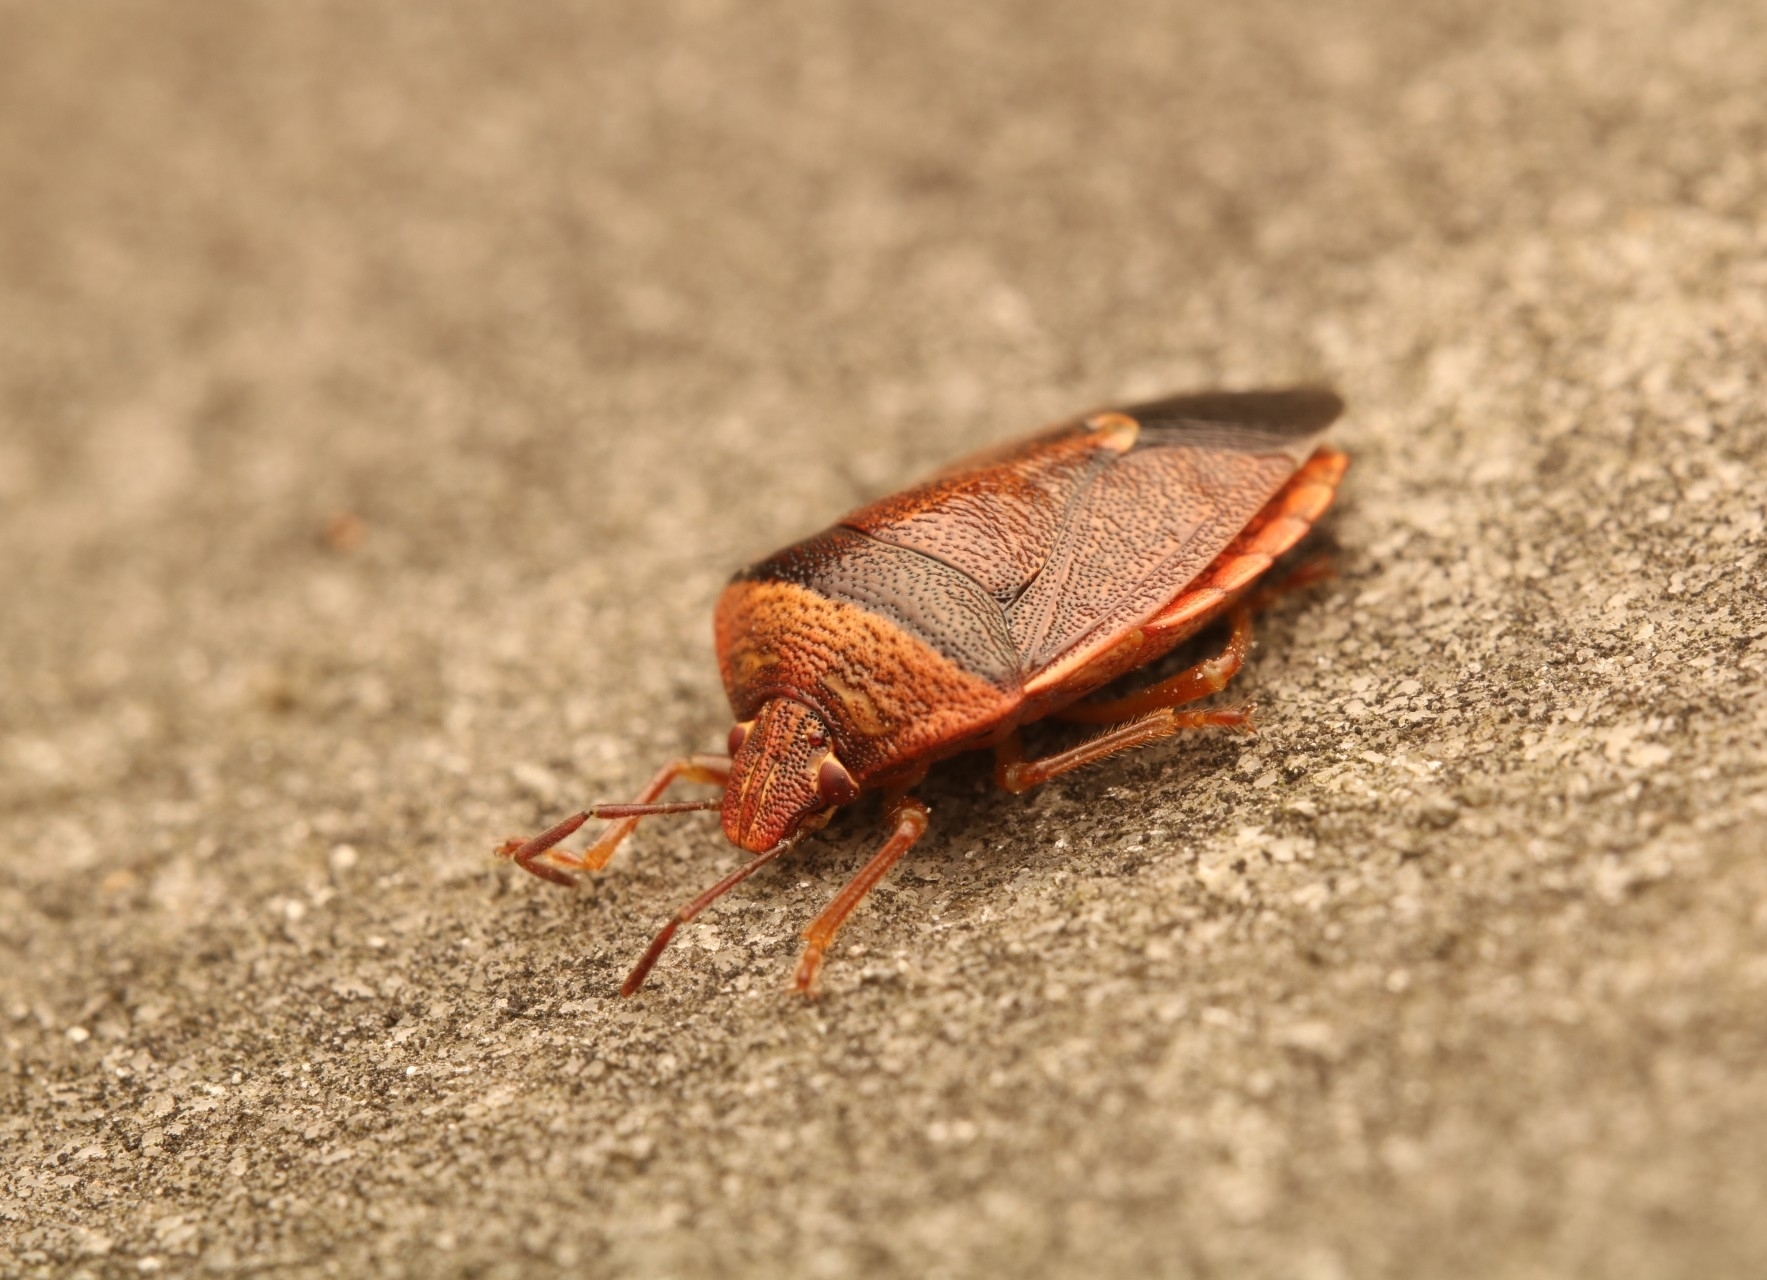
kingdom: Animalia
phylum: Arthropoda
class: Insecta
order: Hemiptera
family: Pentatomidae
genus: Banasa
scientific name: Banasa calva
